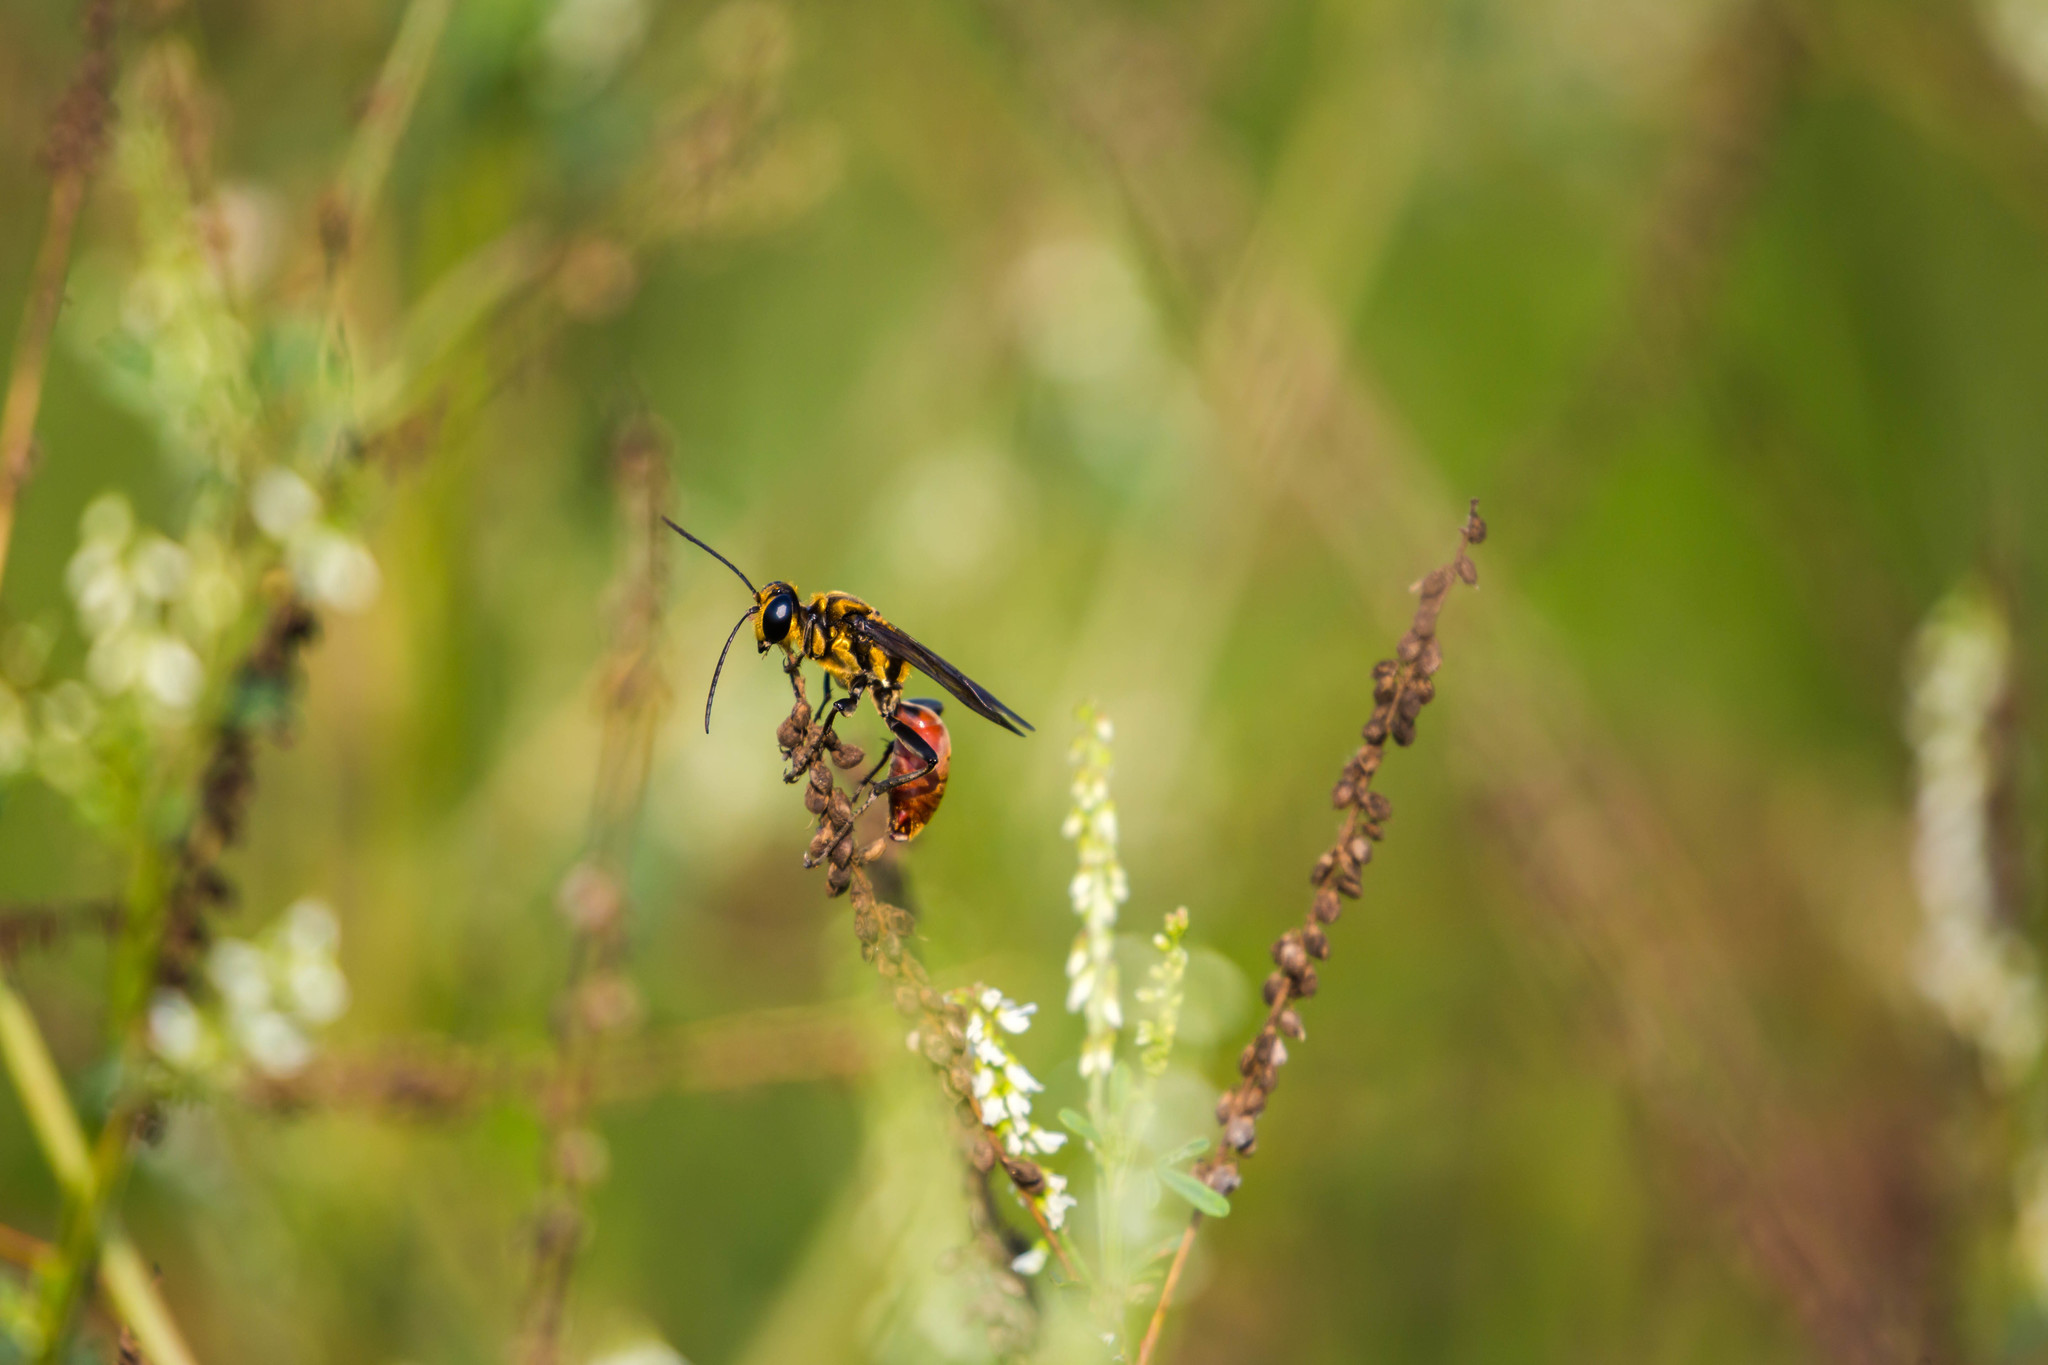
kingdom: Animalia
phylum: Arthropoda
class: Insecta
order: Hymenoptera
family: Sphecidae
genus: Sphex
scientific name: Sphex habenus
